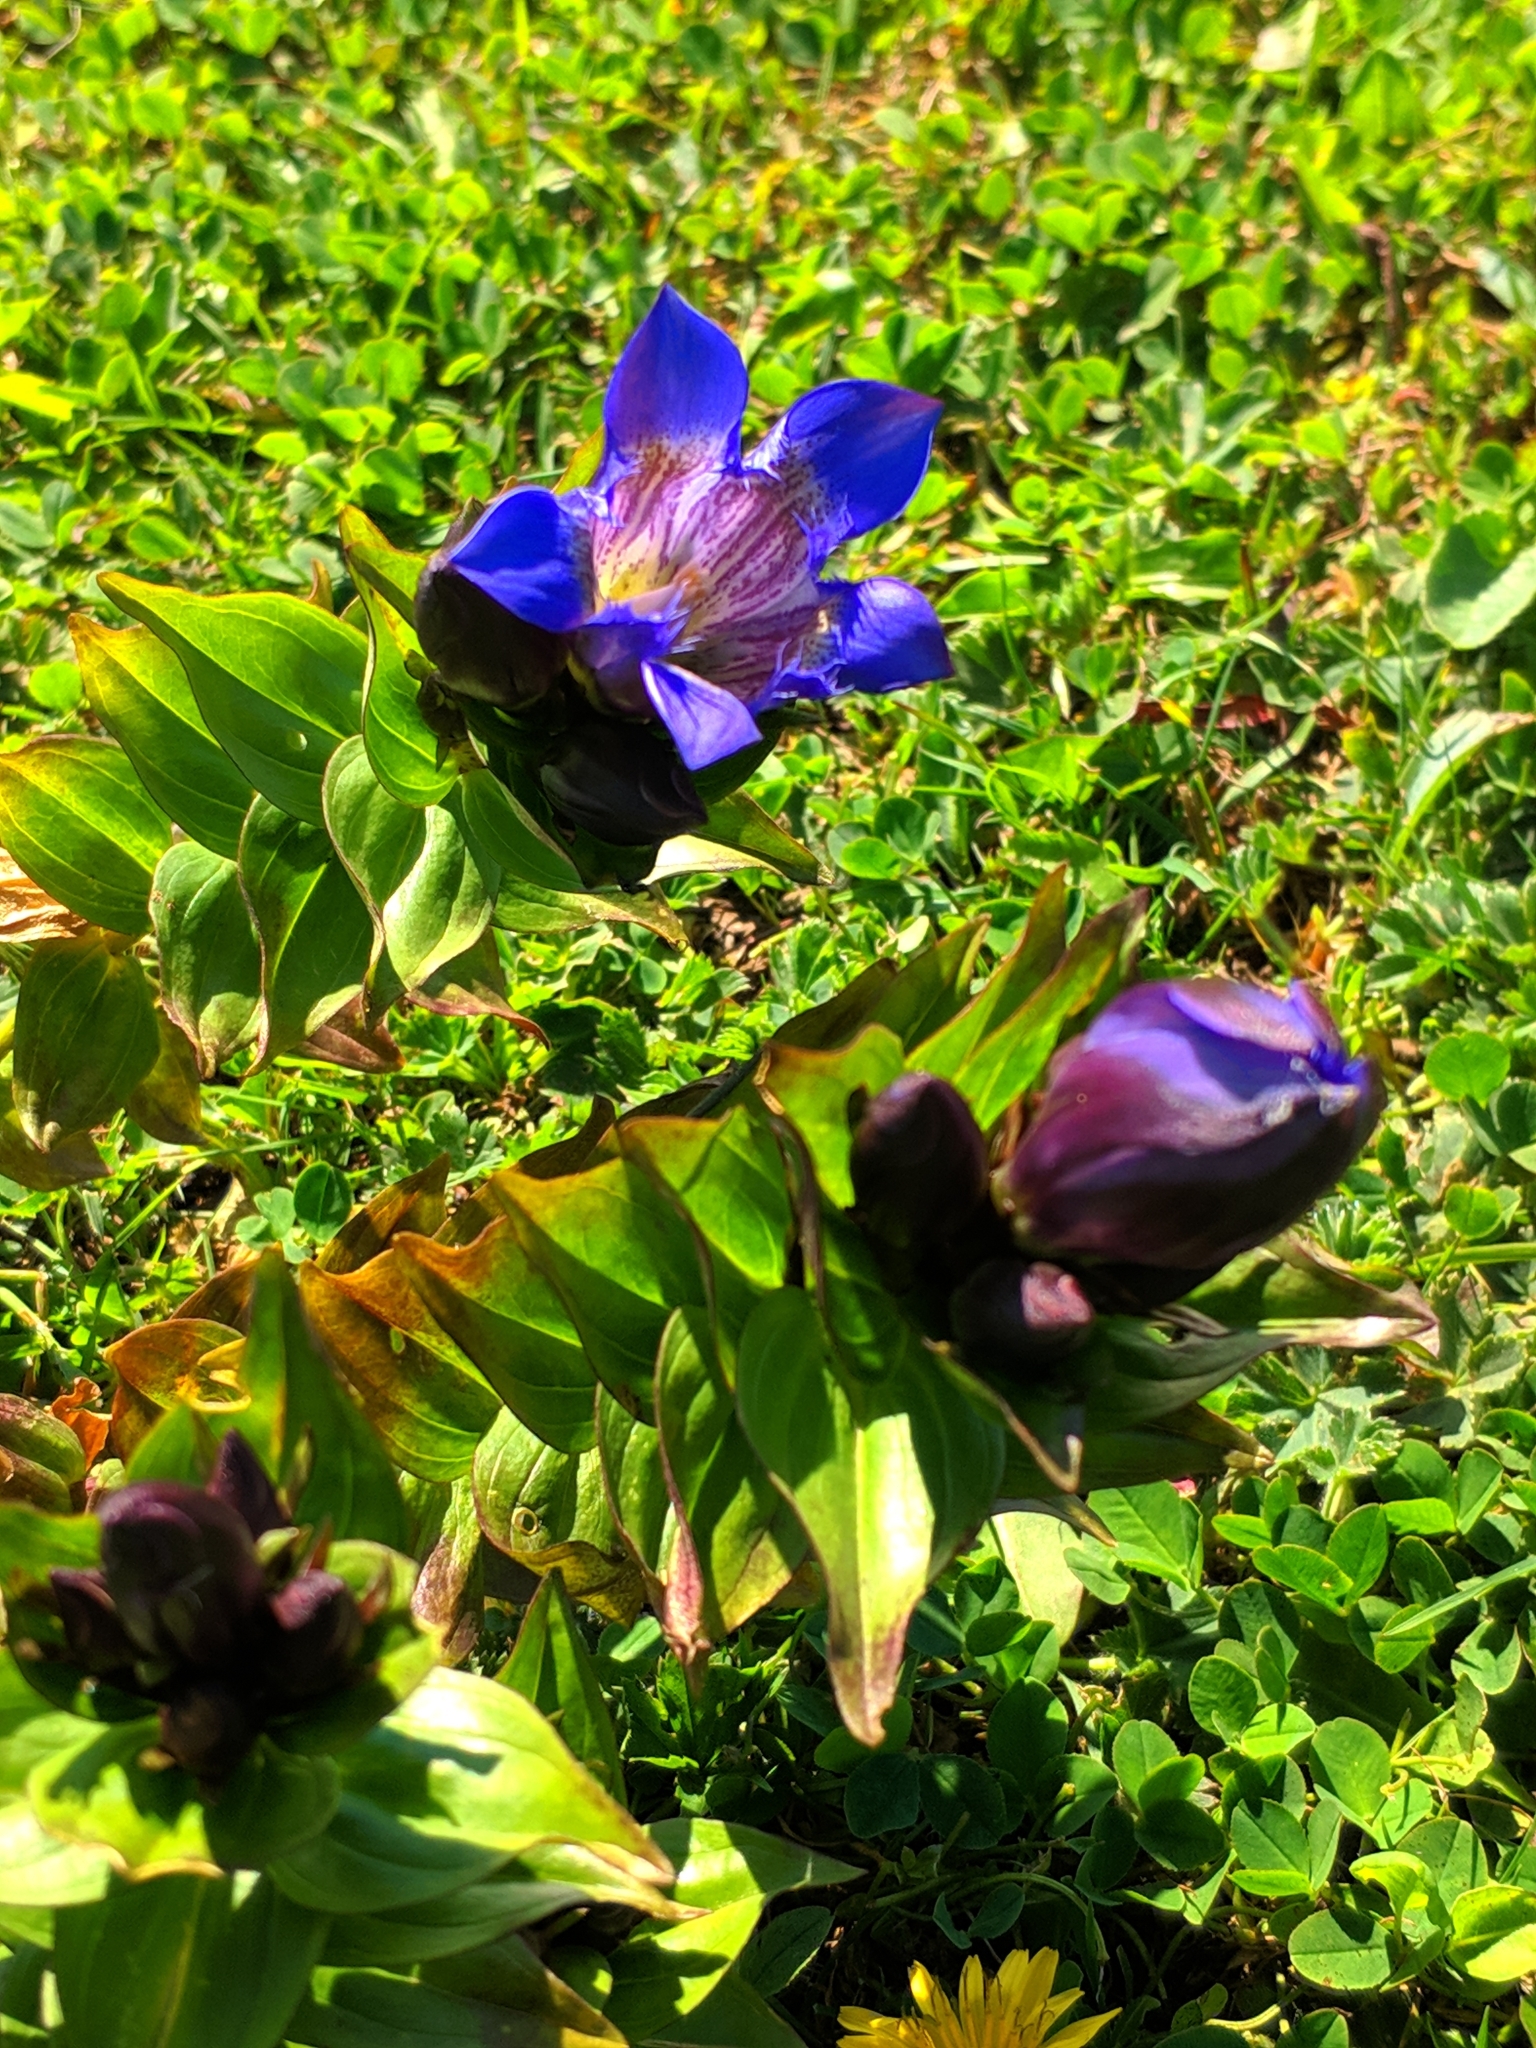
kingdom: Plantae
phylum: Tracheophyta
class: Magnoliopsida
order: Gentianales
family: Gentianaceae
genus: Gentiana
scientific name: Gentiana septemfida
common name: Crested gentian
